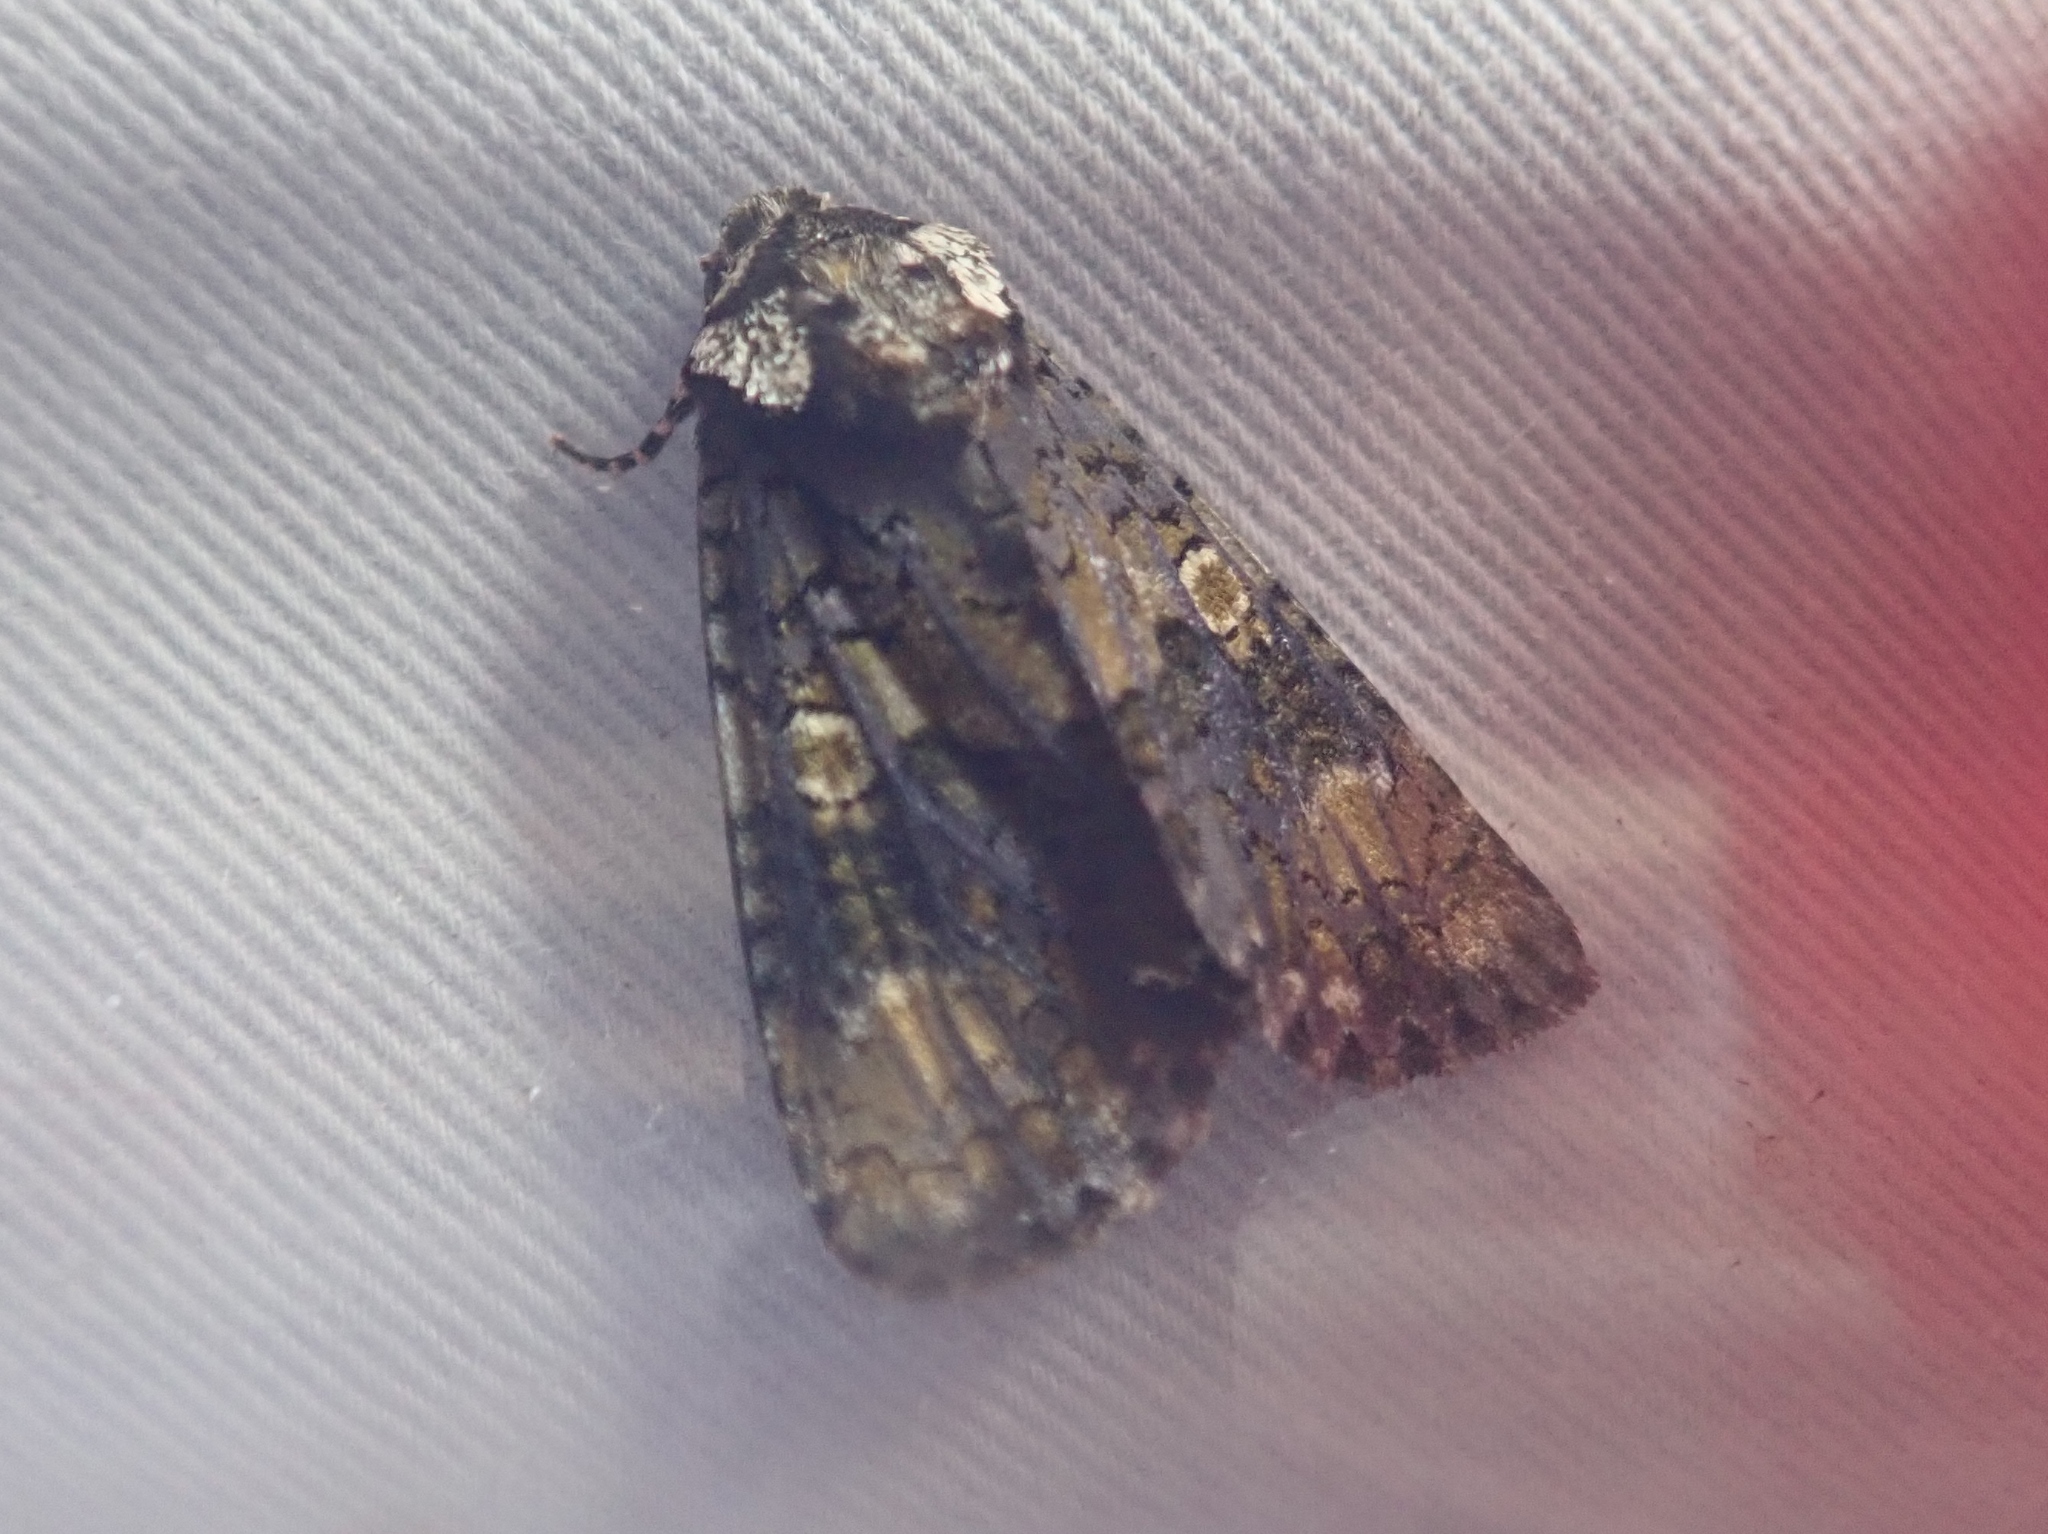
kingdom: Animalia
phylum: Arthropoda
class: Insecta
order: Lepidoptera
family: Noctuidae
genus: Craniophora
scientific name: Craniophora ligustri
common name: Coronet
